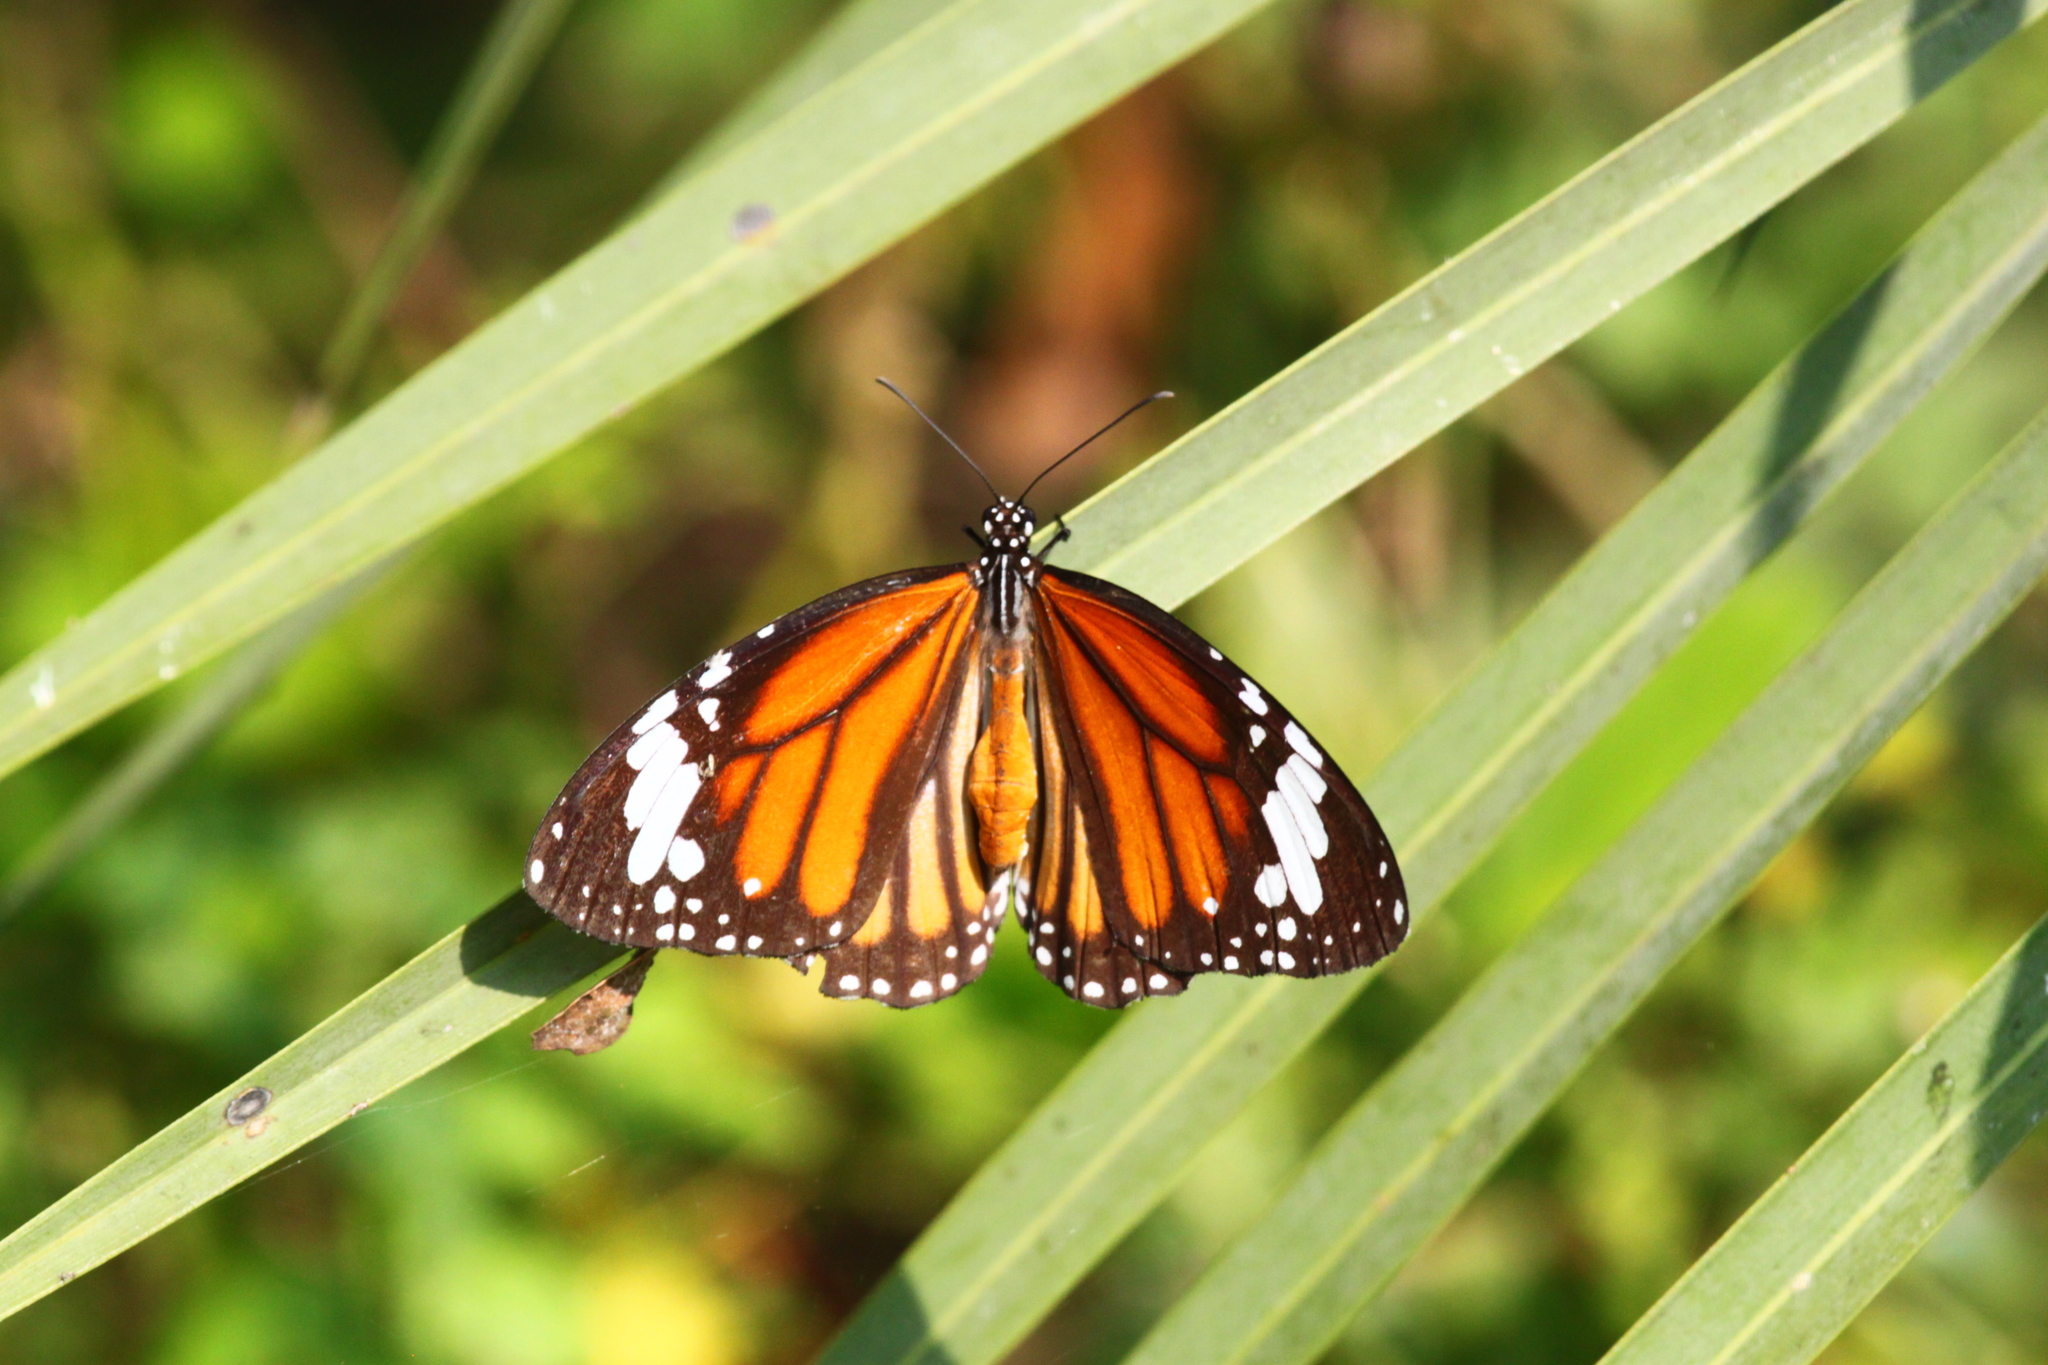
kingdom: Animalia
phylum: Arthropoda
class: Insecta
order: Lepidoptera
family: Nymphalidae
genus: Danaus
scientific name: Danaus genutia
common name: Common tiger butterfly
